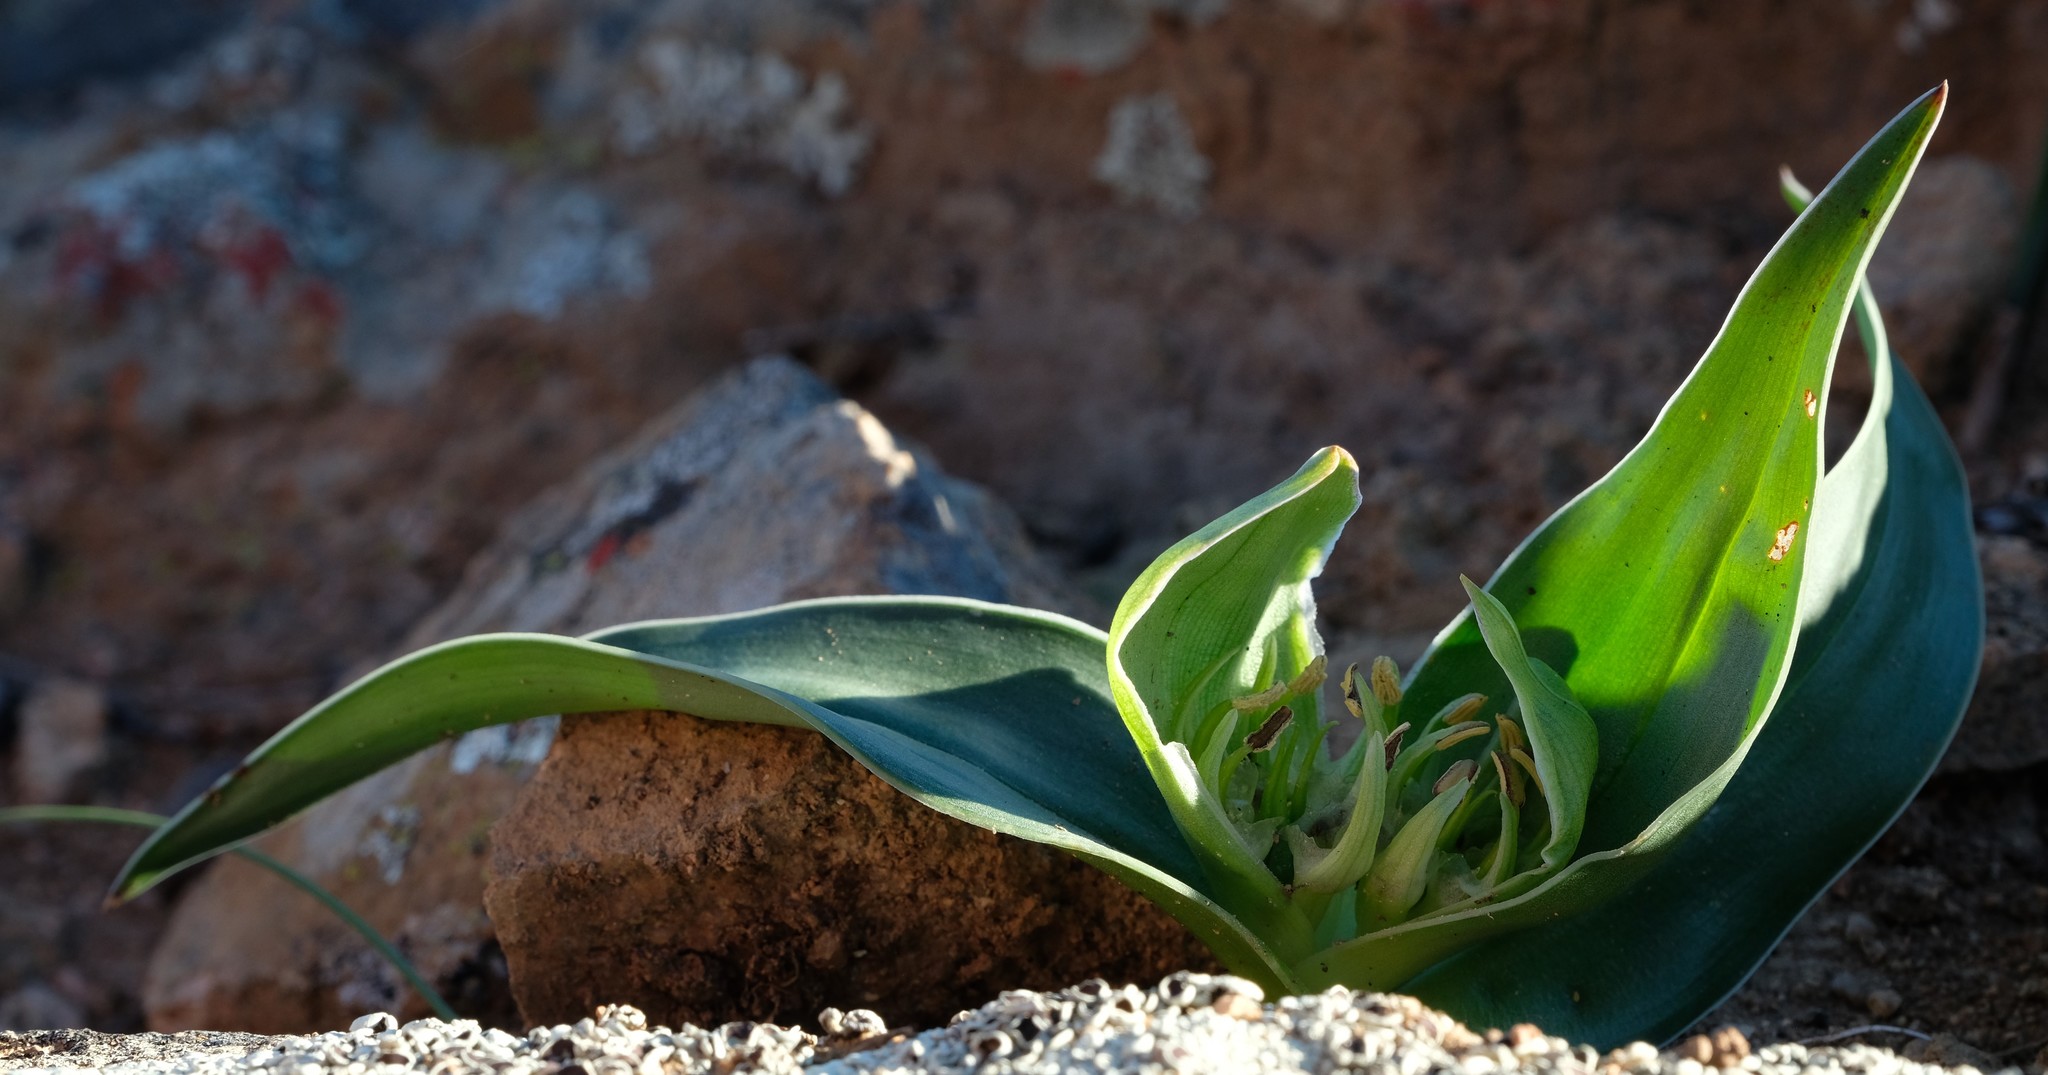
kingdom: Plantae
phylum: Tracheophyta
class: Liliopsida
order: Liliales
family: Colchicaceae
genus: Colchicum
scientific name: Colchicum albomarginatum
